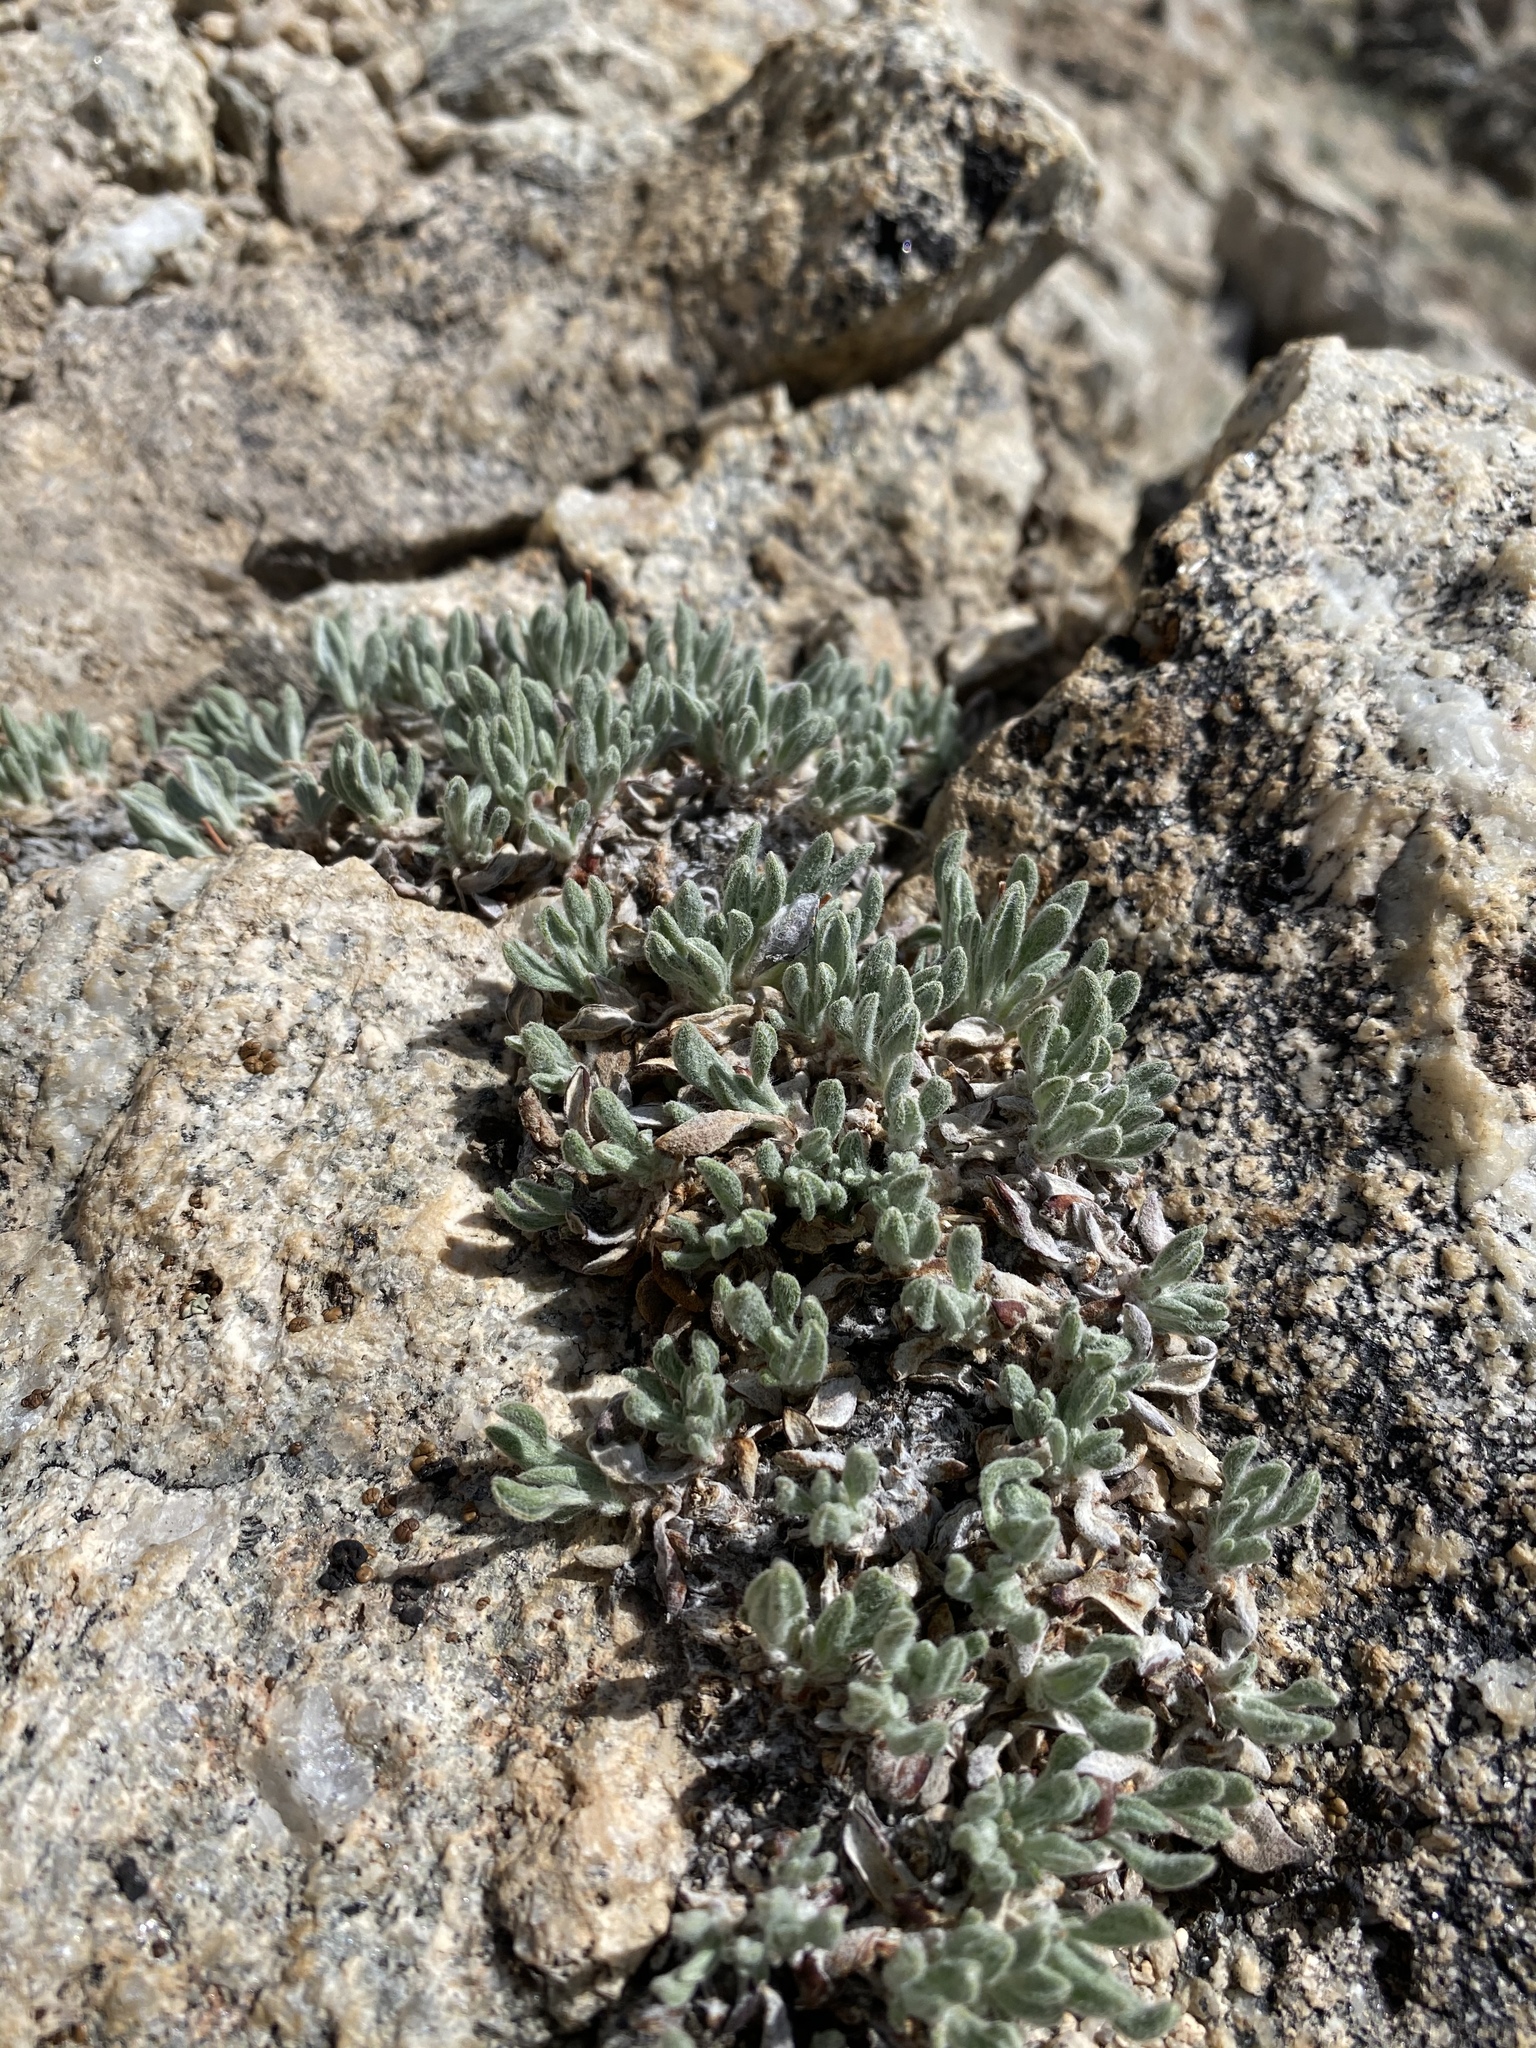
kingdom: Plantae
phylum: Tracheophyta
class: Magnoliopsida
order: Caryophyllales
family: Polygonaceae
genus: Eriogonum
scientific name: Eriogonum rosense
